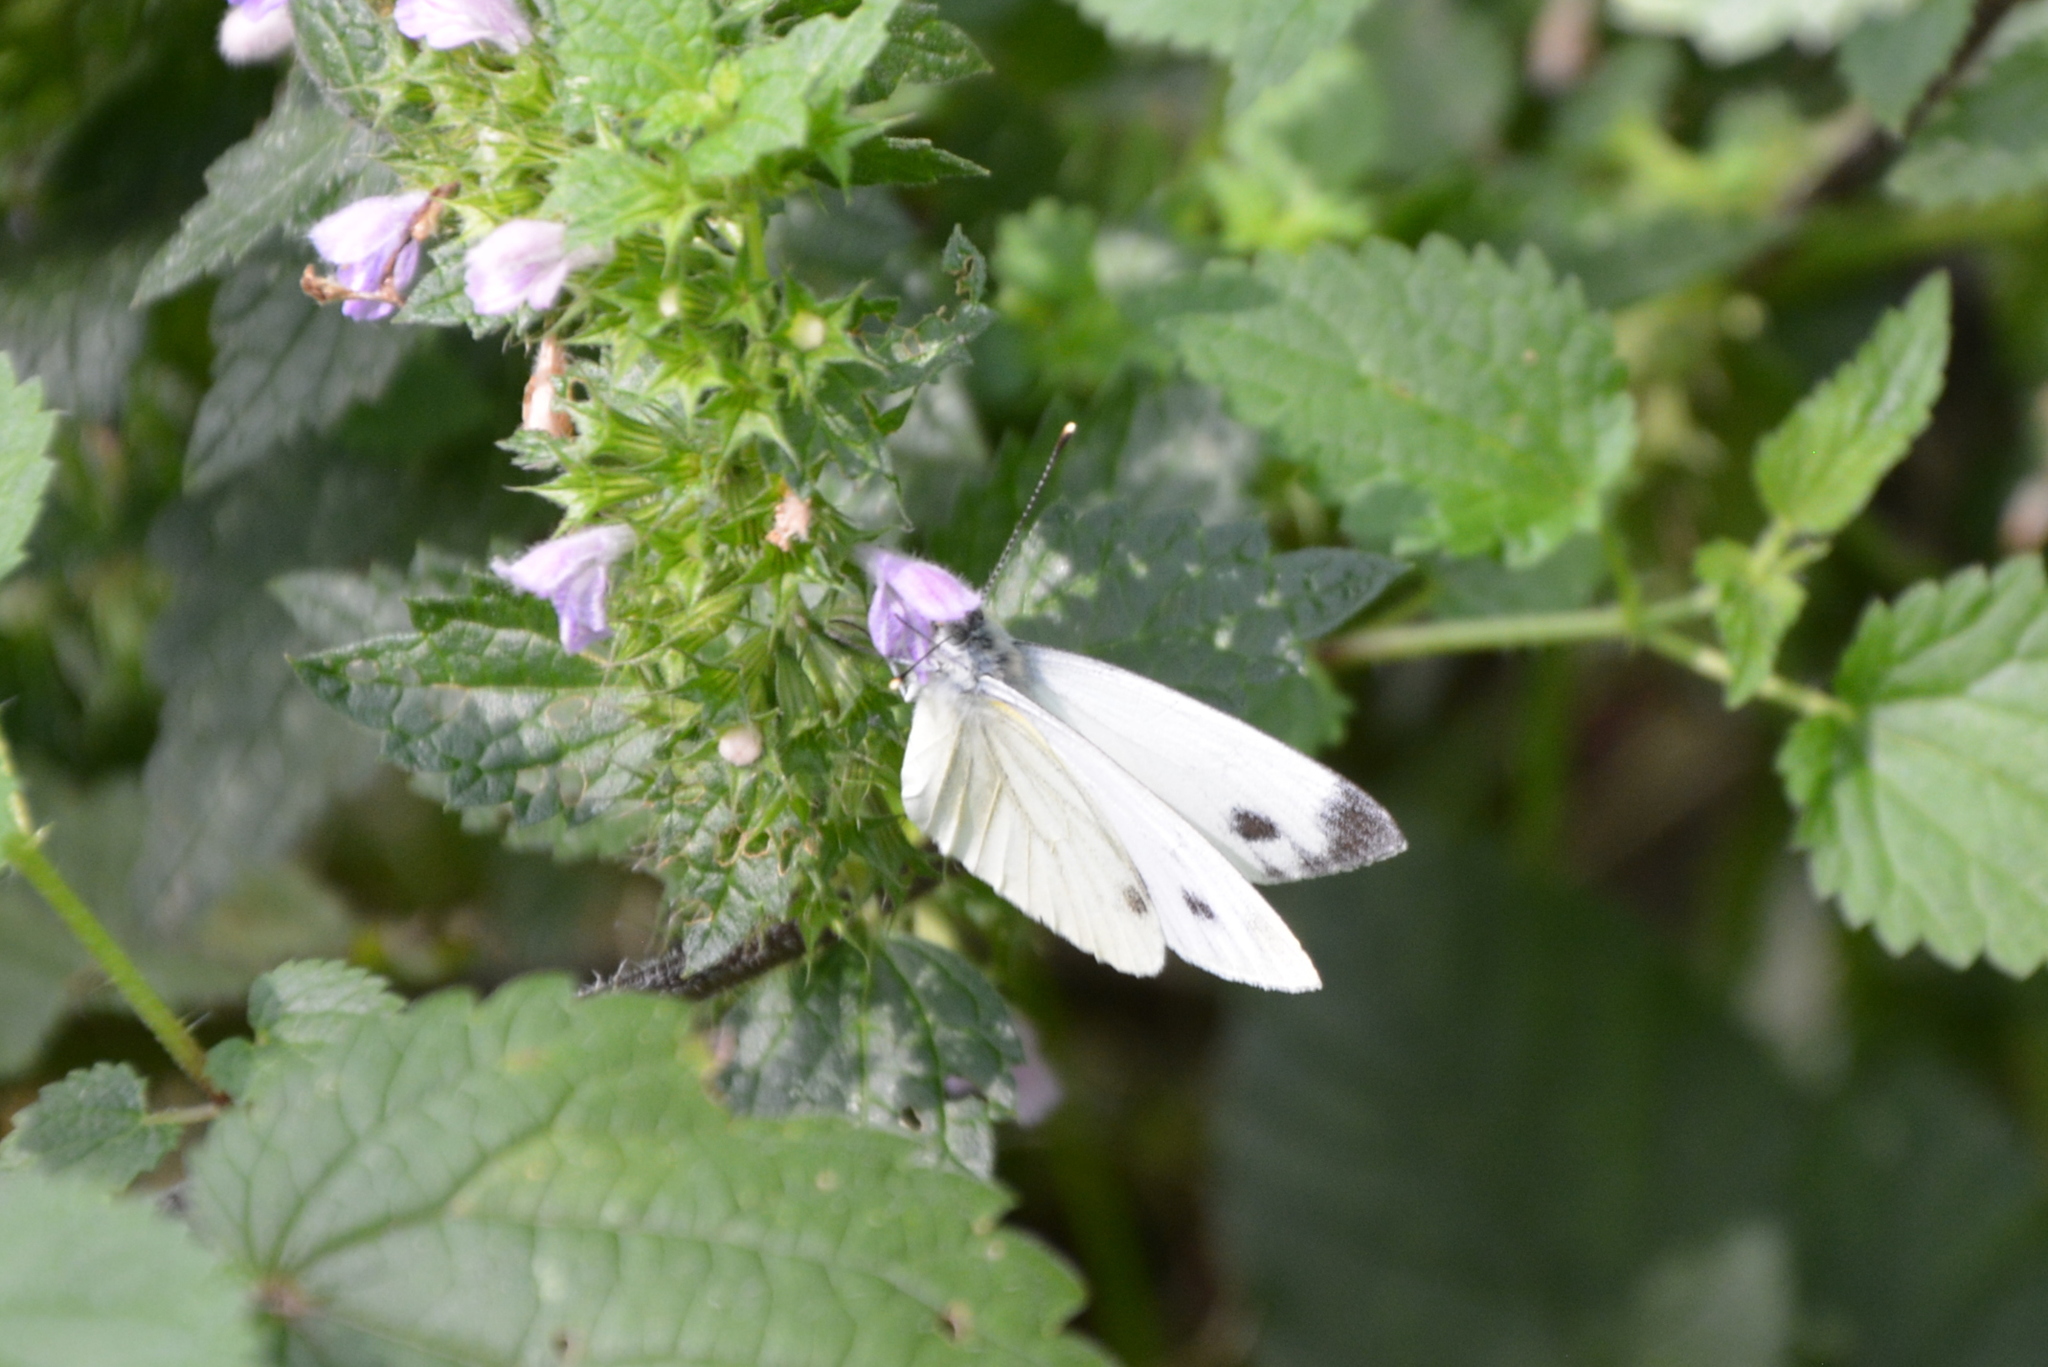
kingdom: Animalia
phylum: Arthropoda
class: Insecta
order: Lepidoptera
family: Pieridae
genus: Pieris
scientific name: Pieris napi
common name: Green-veined white
